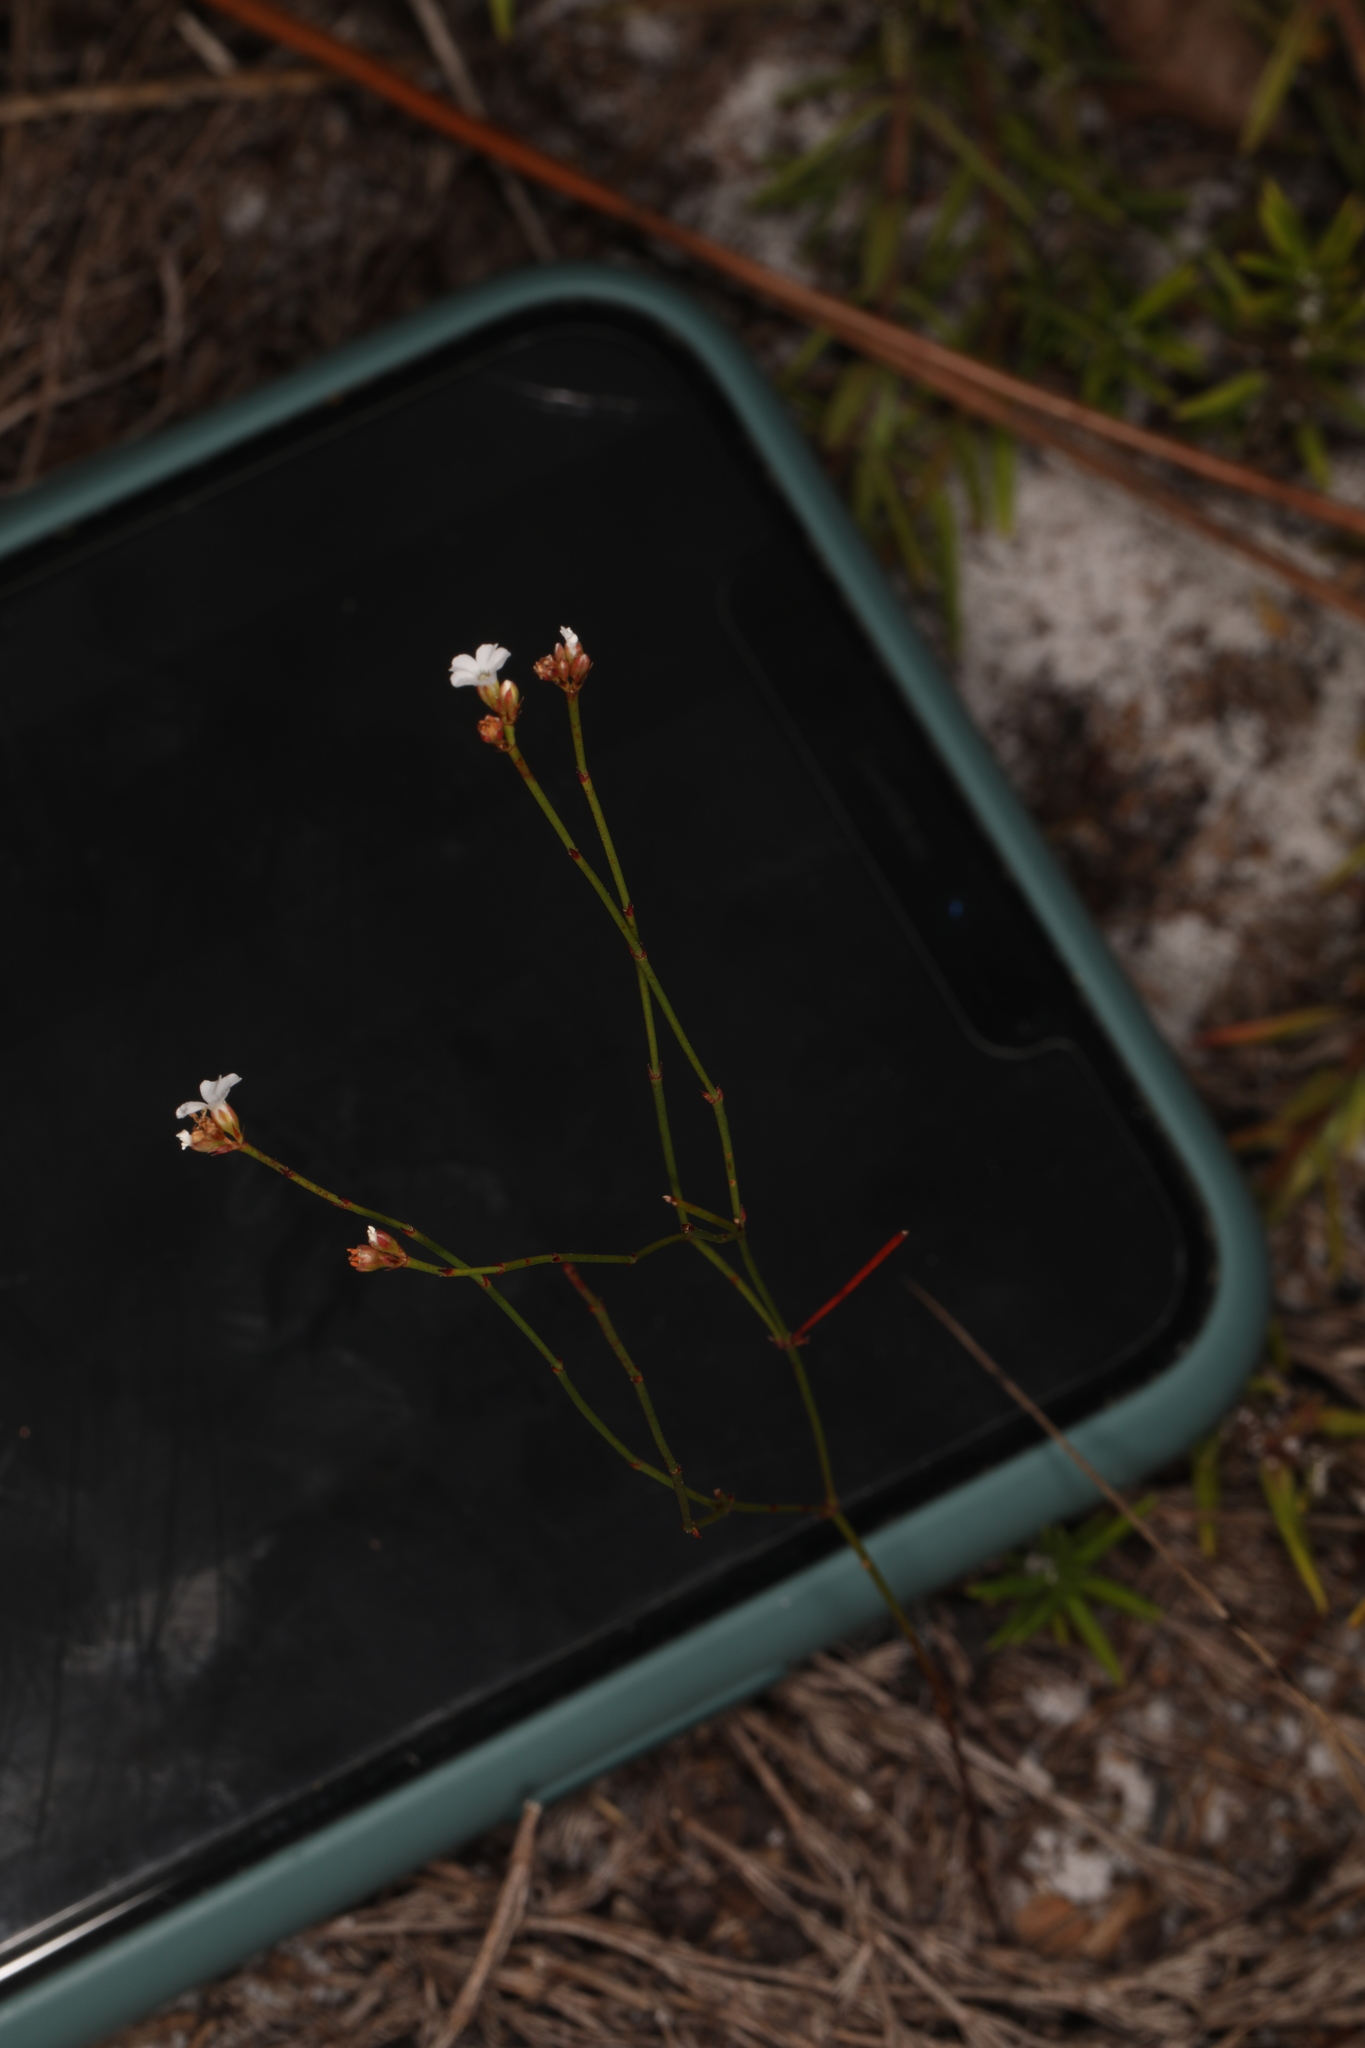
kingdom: Plantae
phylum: Tracheophyta
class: Magnoliopsida
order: Caryophyllales
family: Caryophyllaceae
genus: Stipulicida
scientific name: Stipulicida setacea
